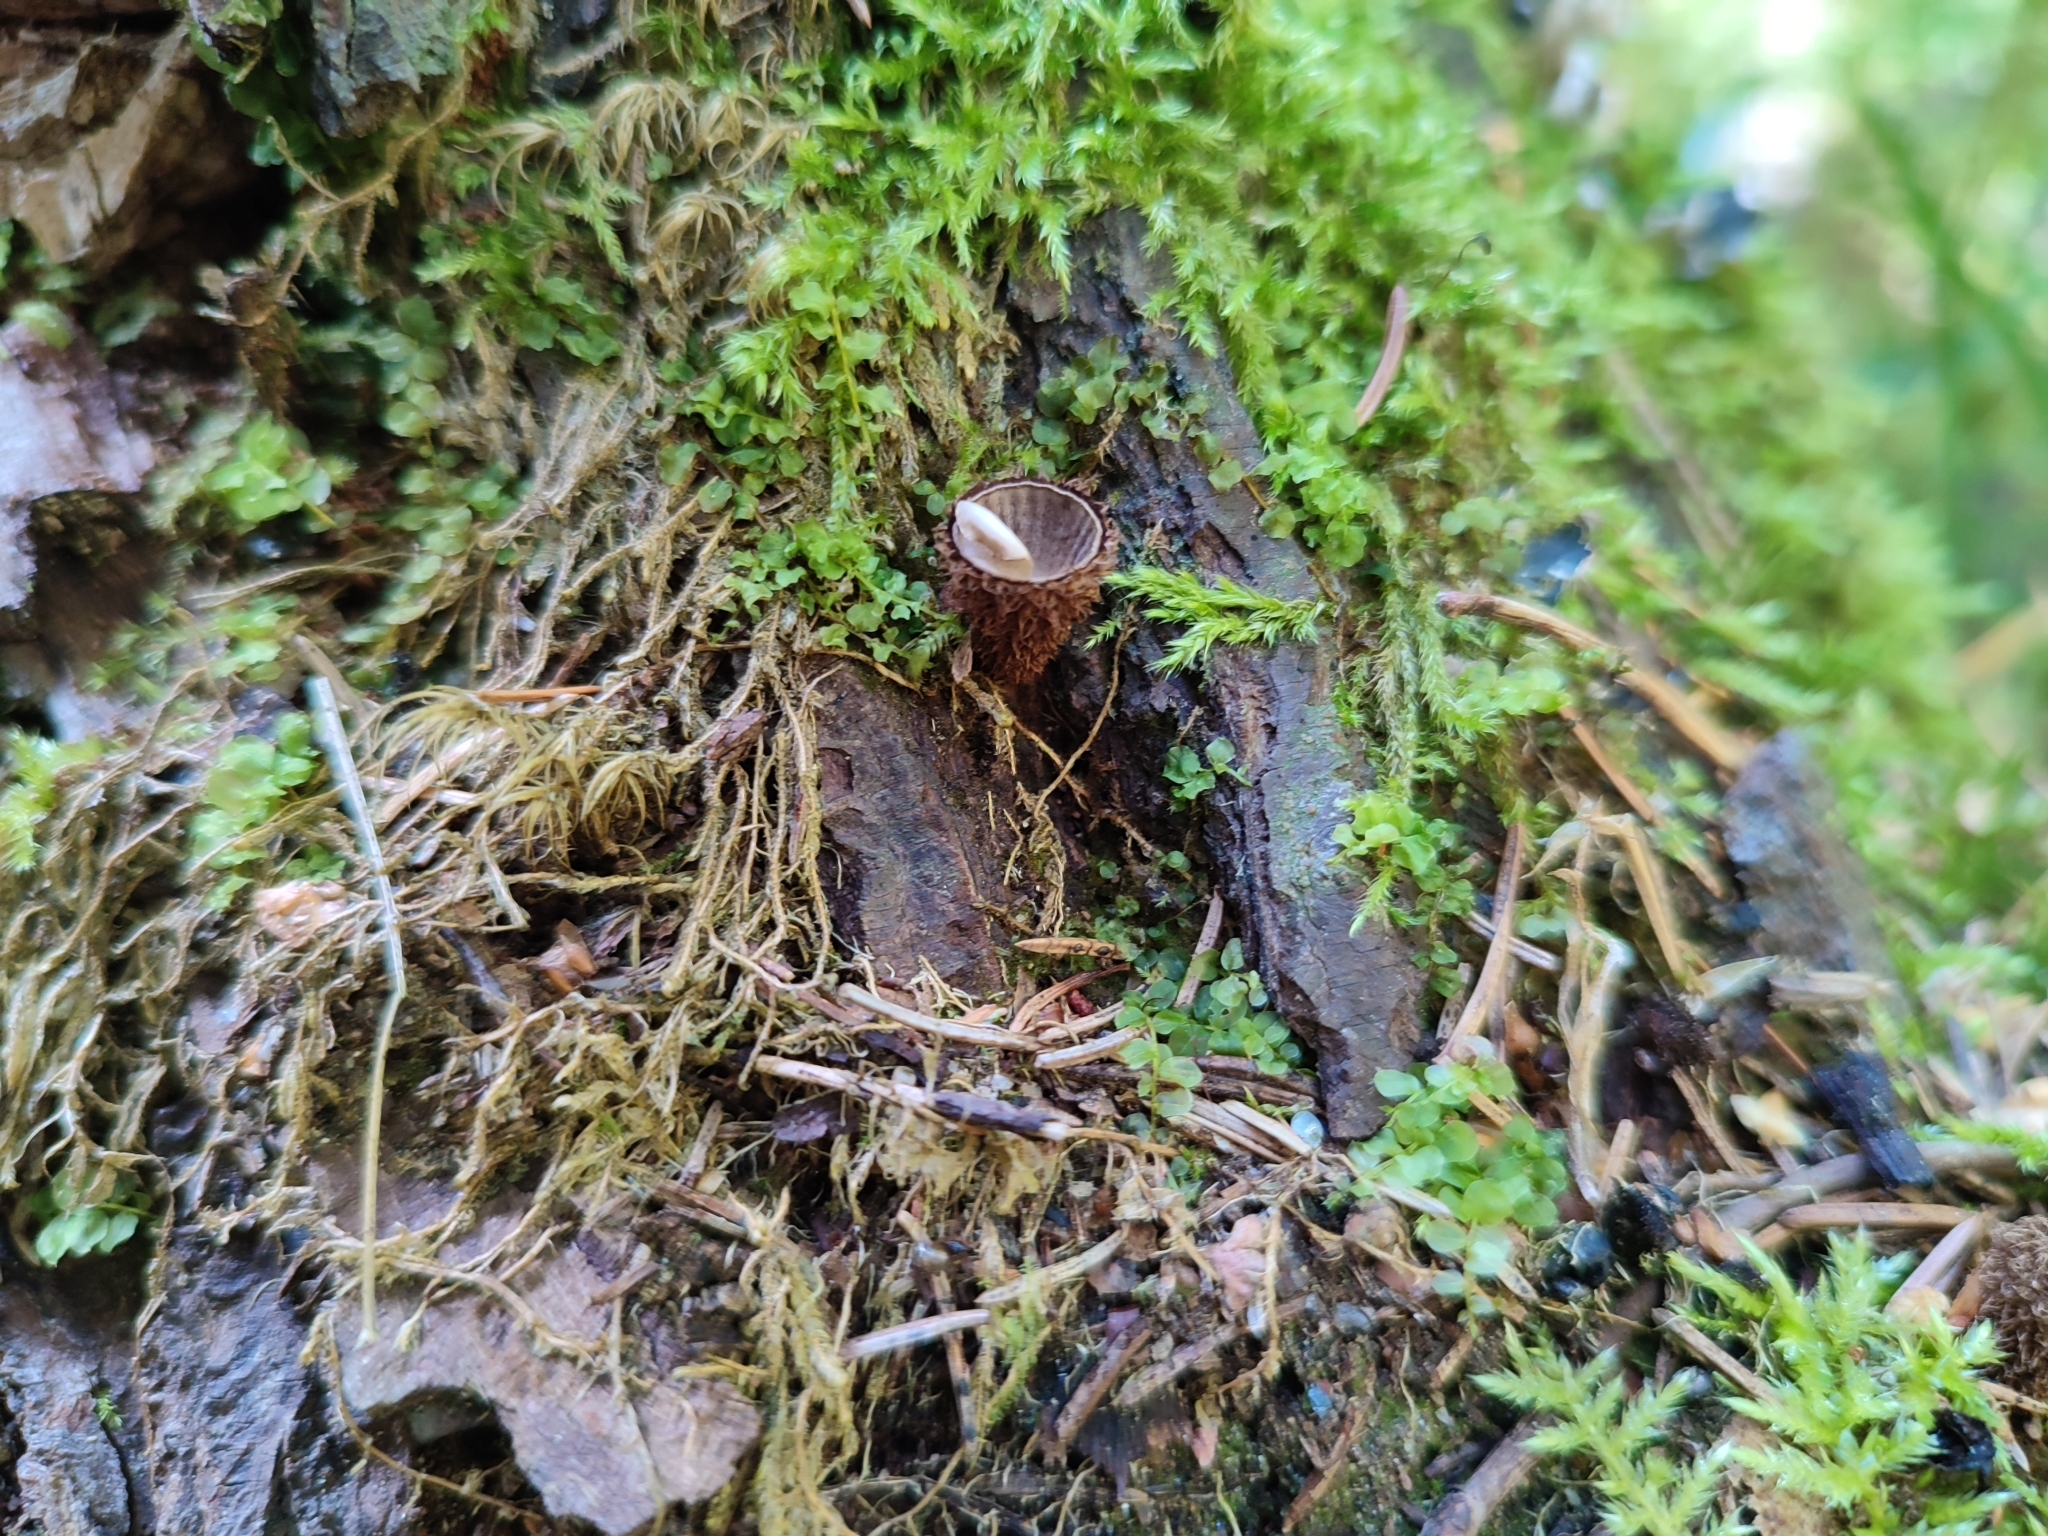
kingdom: Fungi
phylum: Basidiomycota
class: Agaricomycetes
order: Agaricales
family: Agaricaceae
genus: Cyathus
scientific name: Cyathus striatus
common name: Fluted bird's nest
